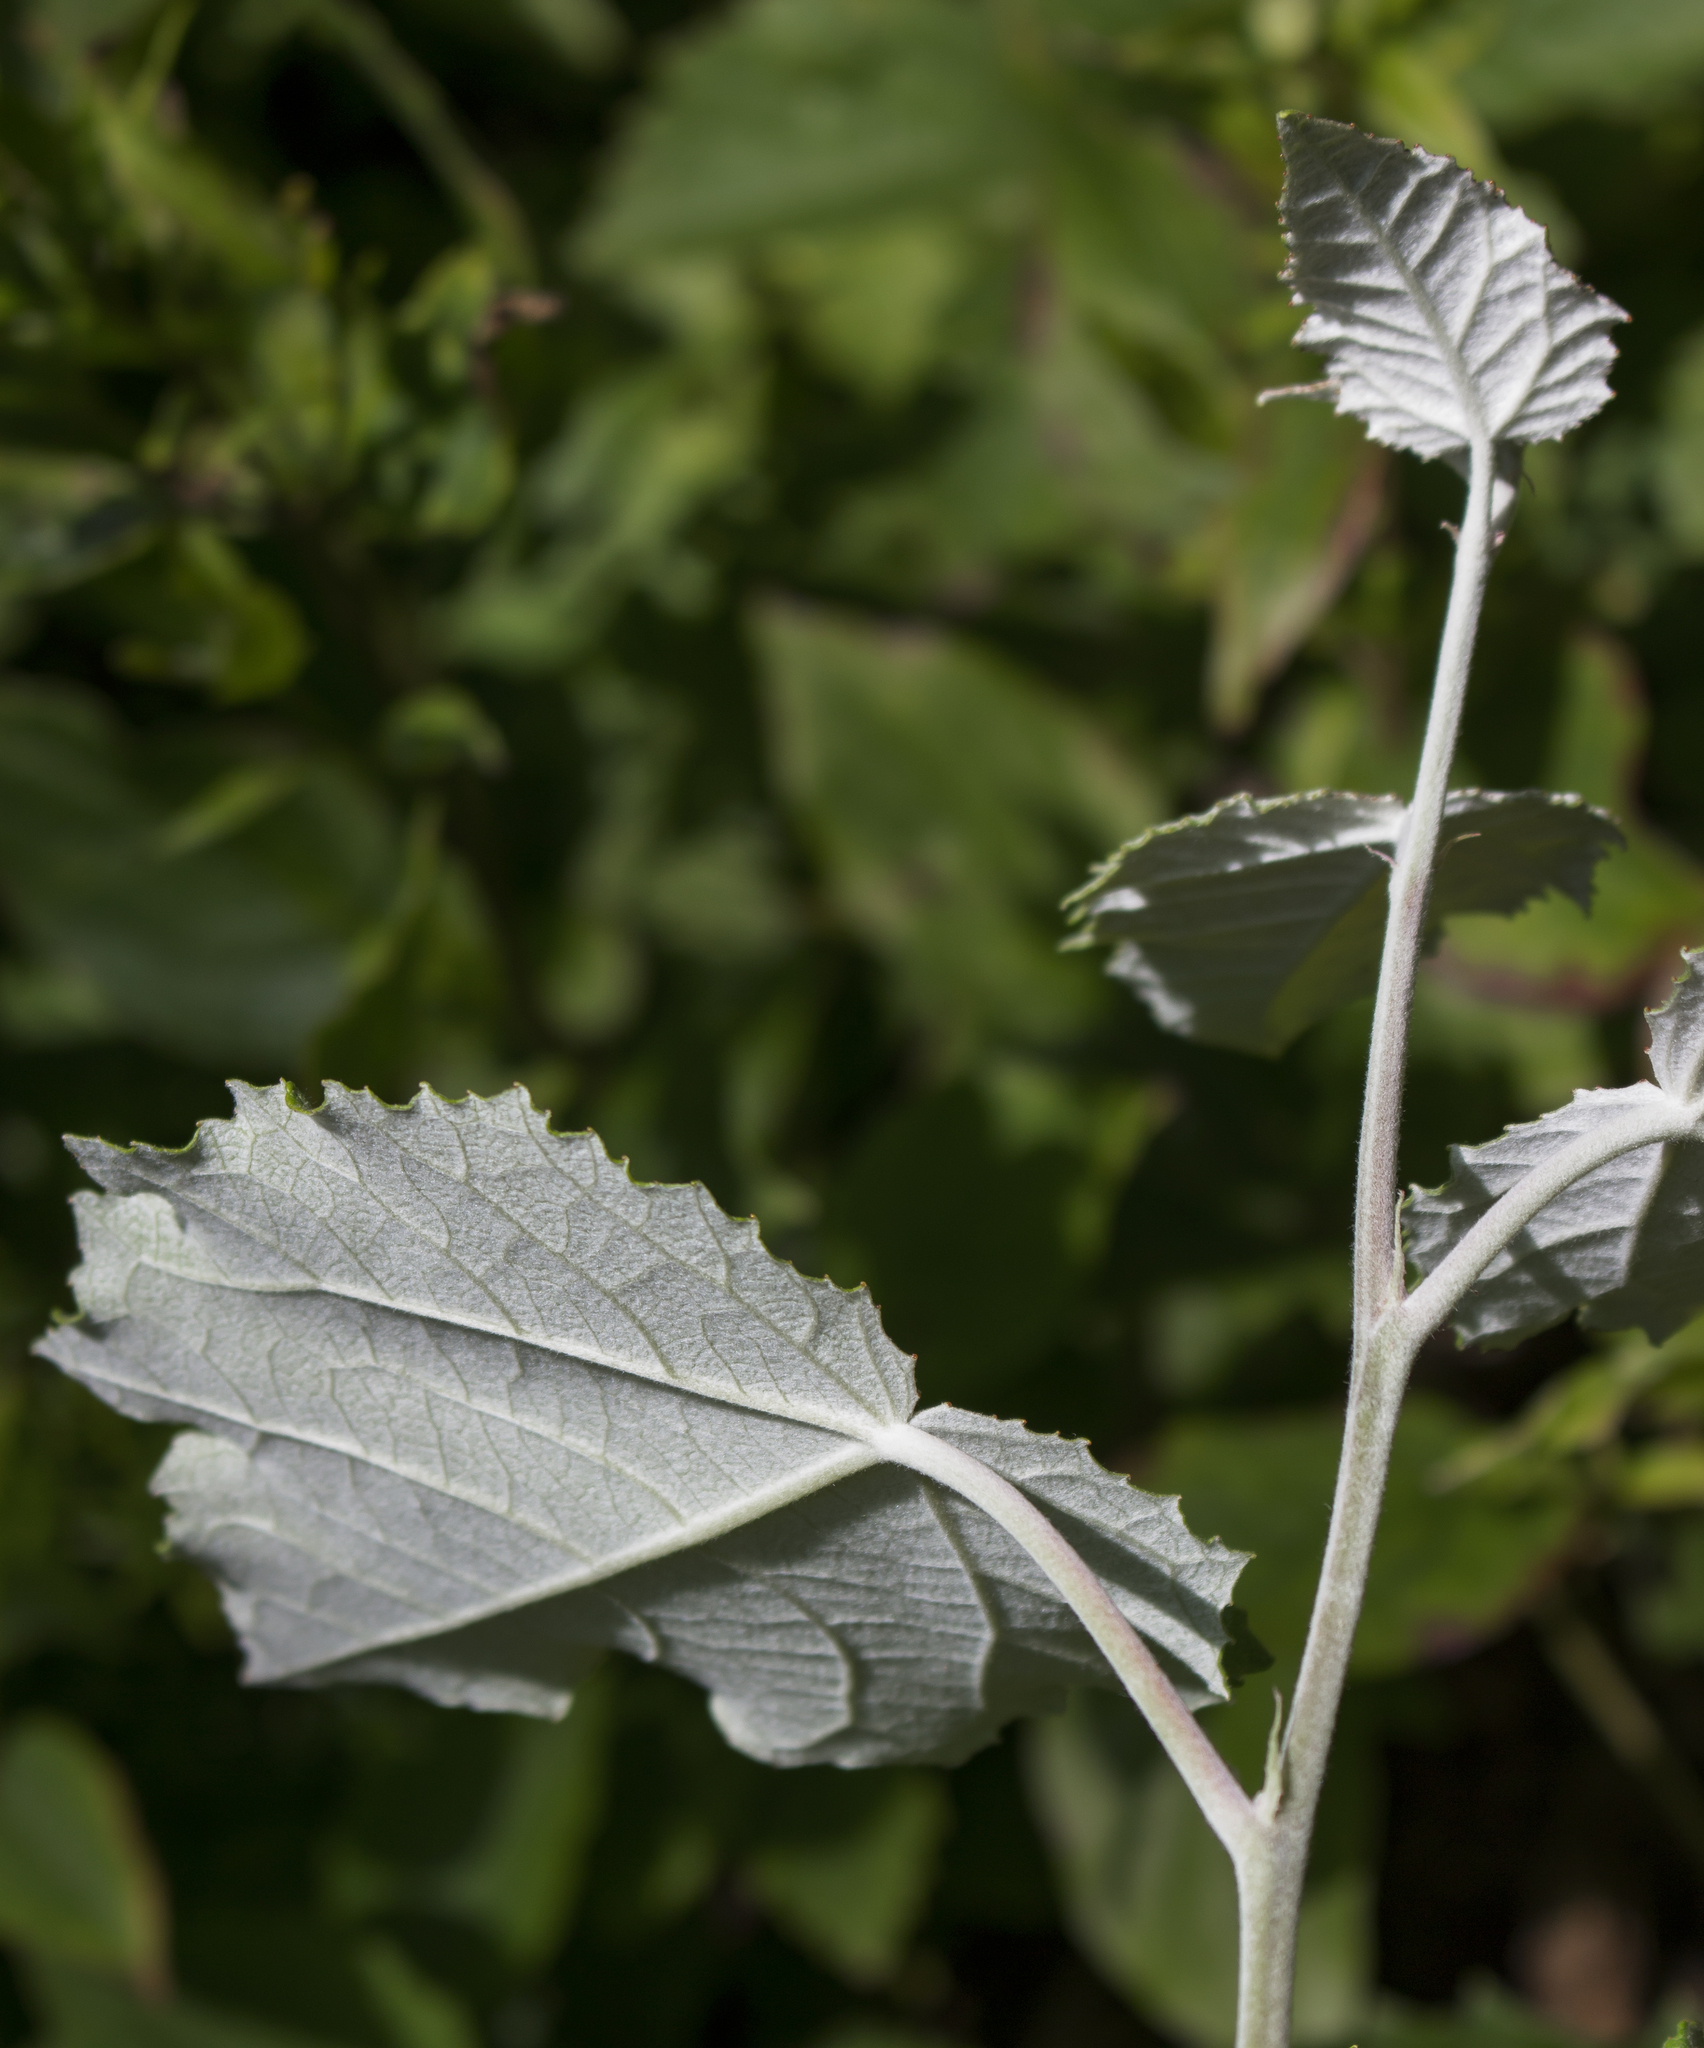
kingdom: Plantae
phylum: Tracheophyta
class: Magnoliopsida
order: Malpighiales
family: Salicaceae
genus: Populus
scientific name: Populus alba
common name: White poplar
